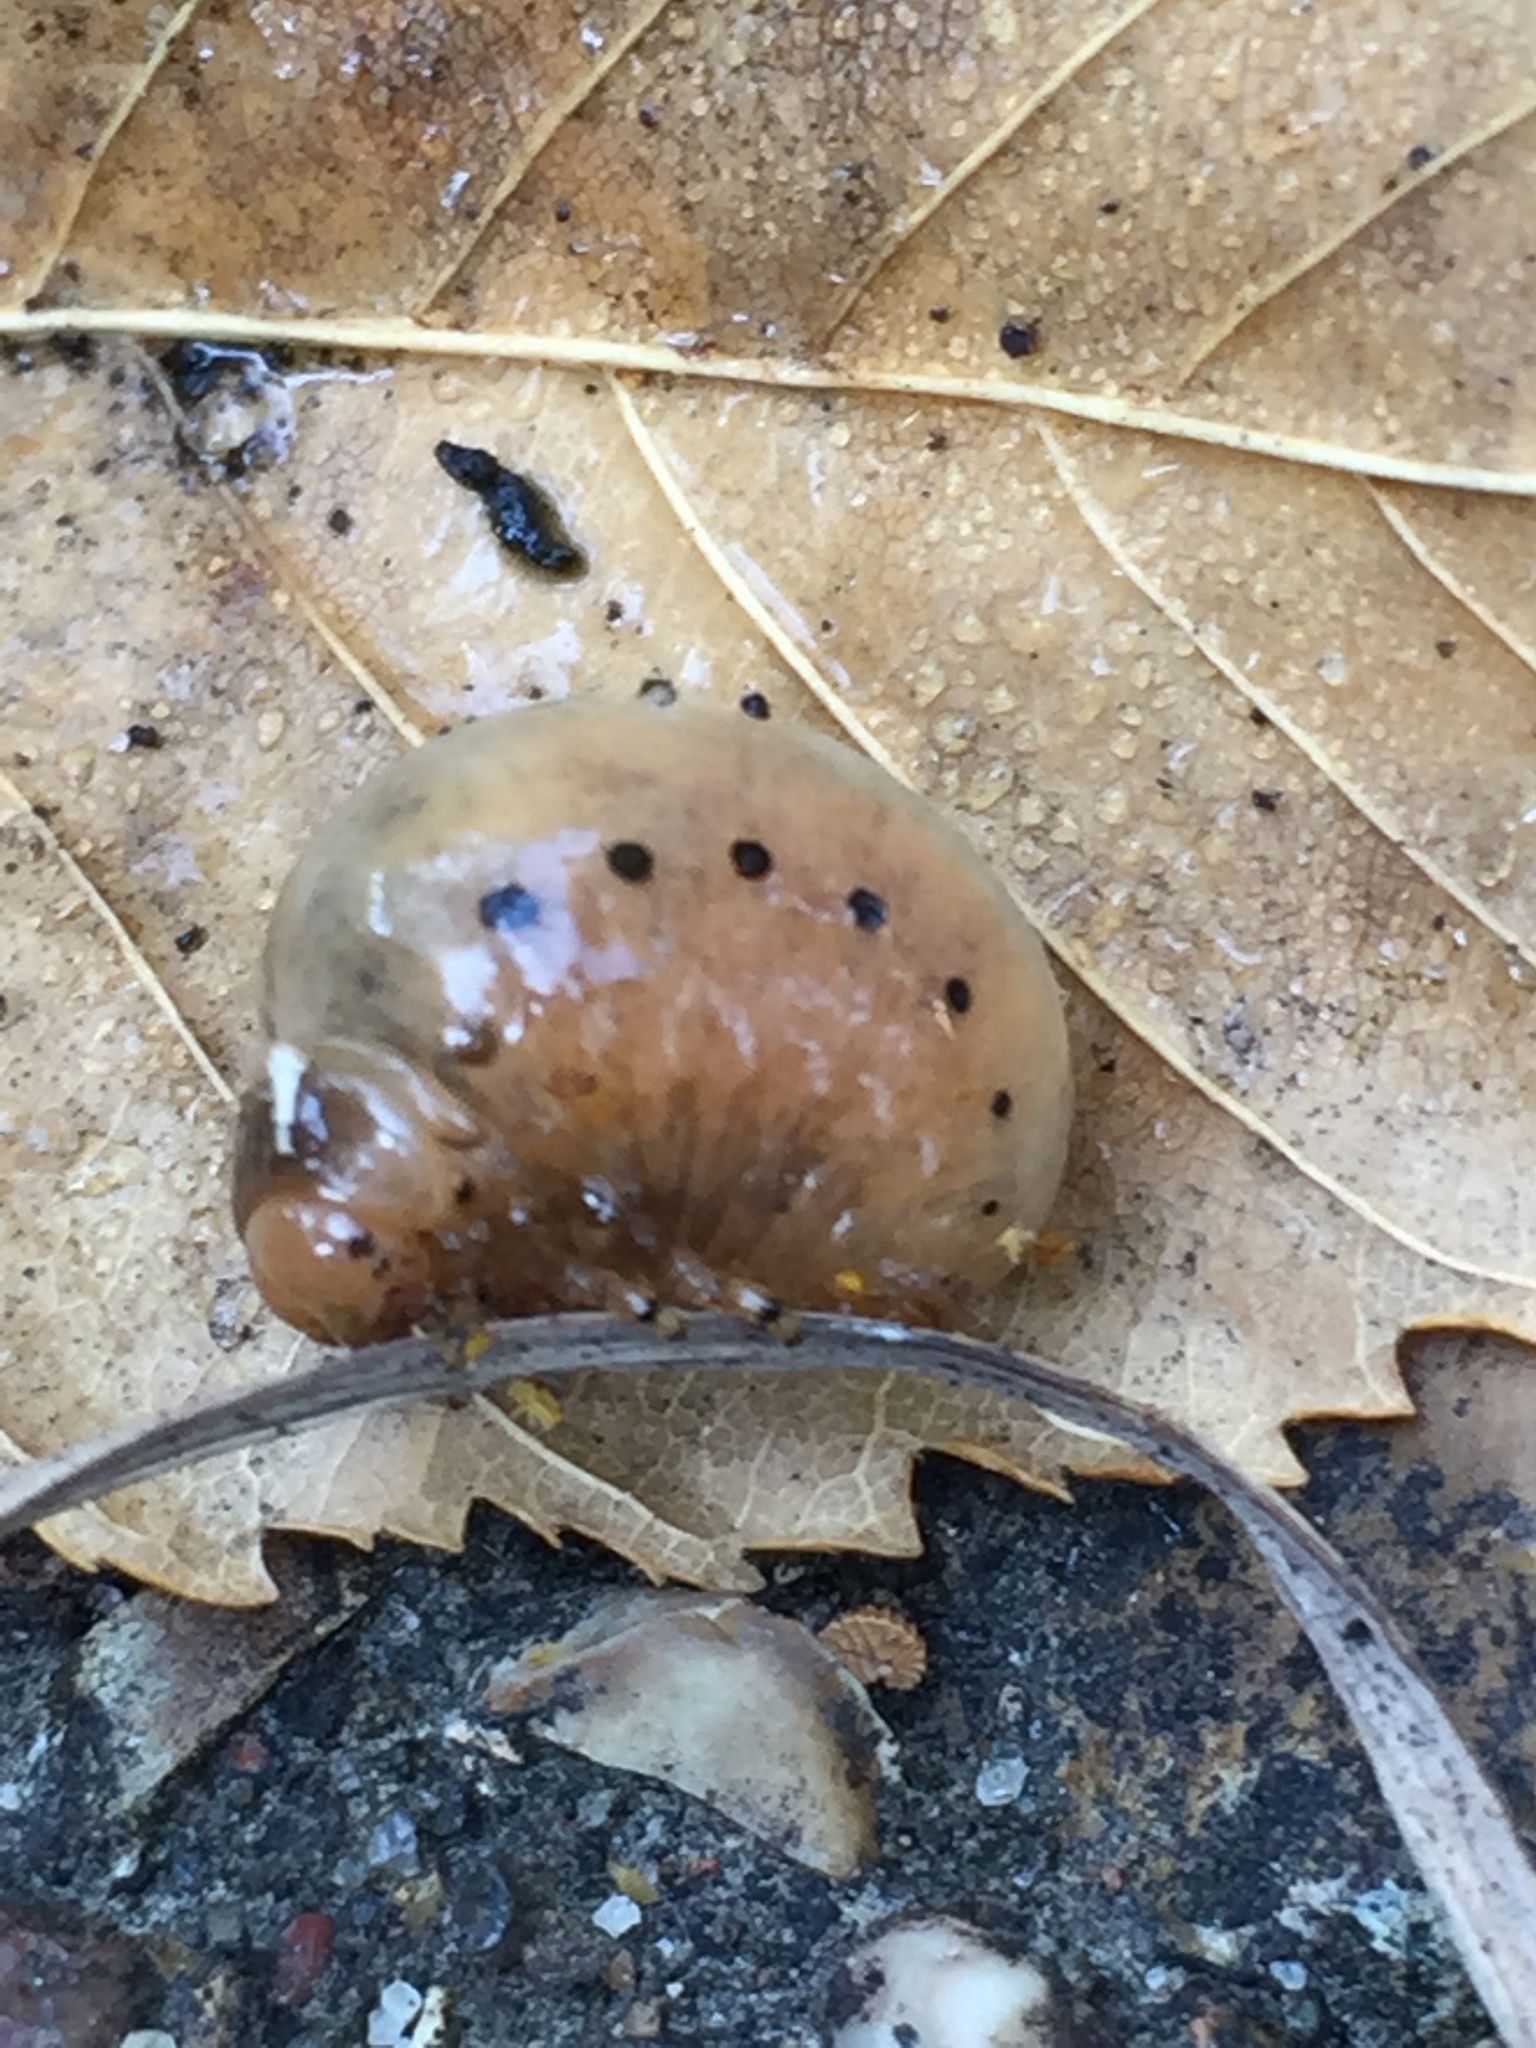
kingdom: Animalia
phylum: Arthropoda
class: Insecta
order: Coleoptera
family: Chrysomelidae
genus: Labidomera
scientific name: Labidomera clivicollis
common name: Swamp milkweed leaf beetle
